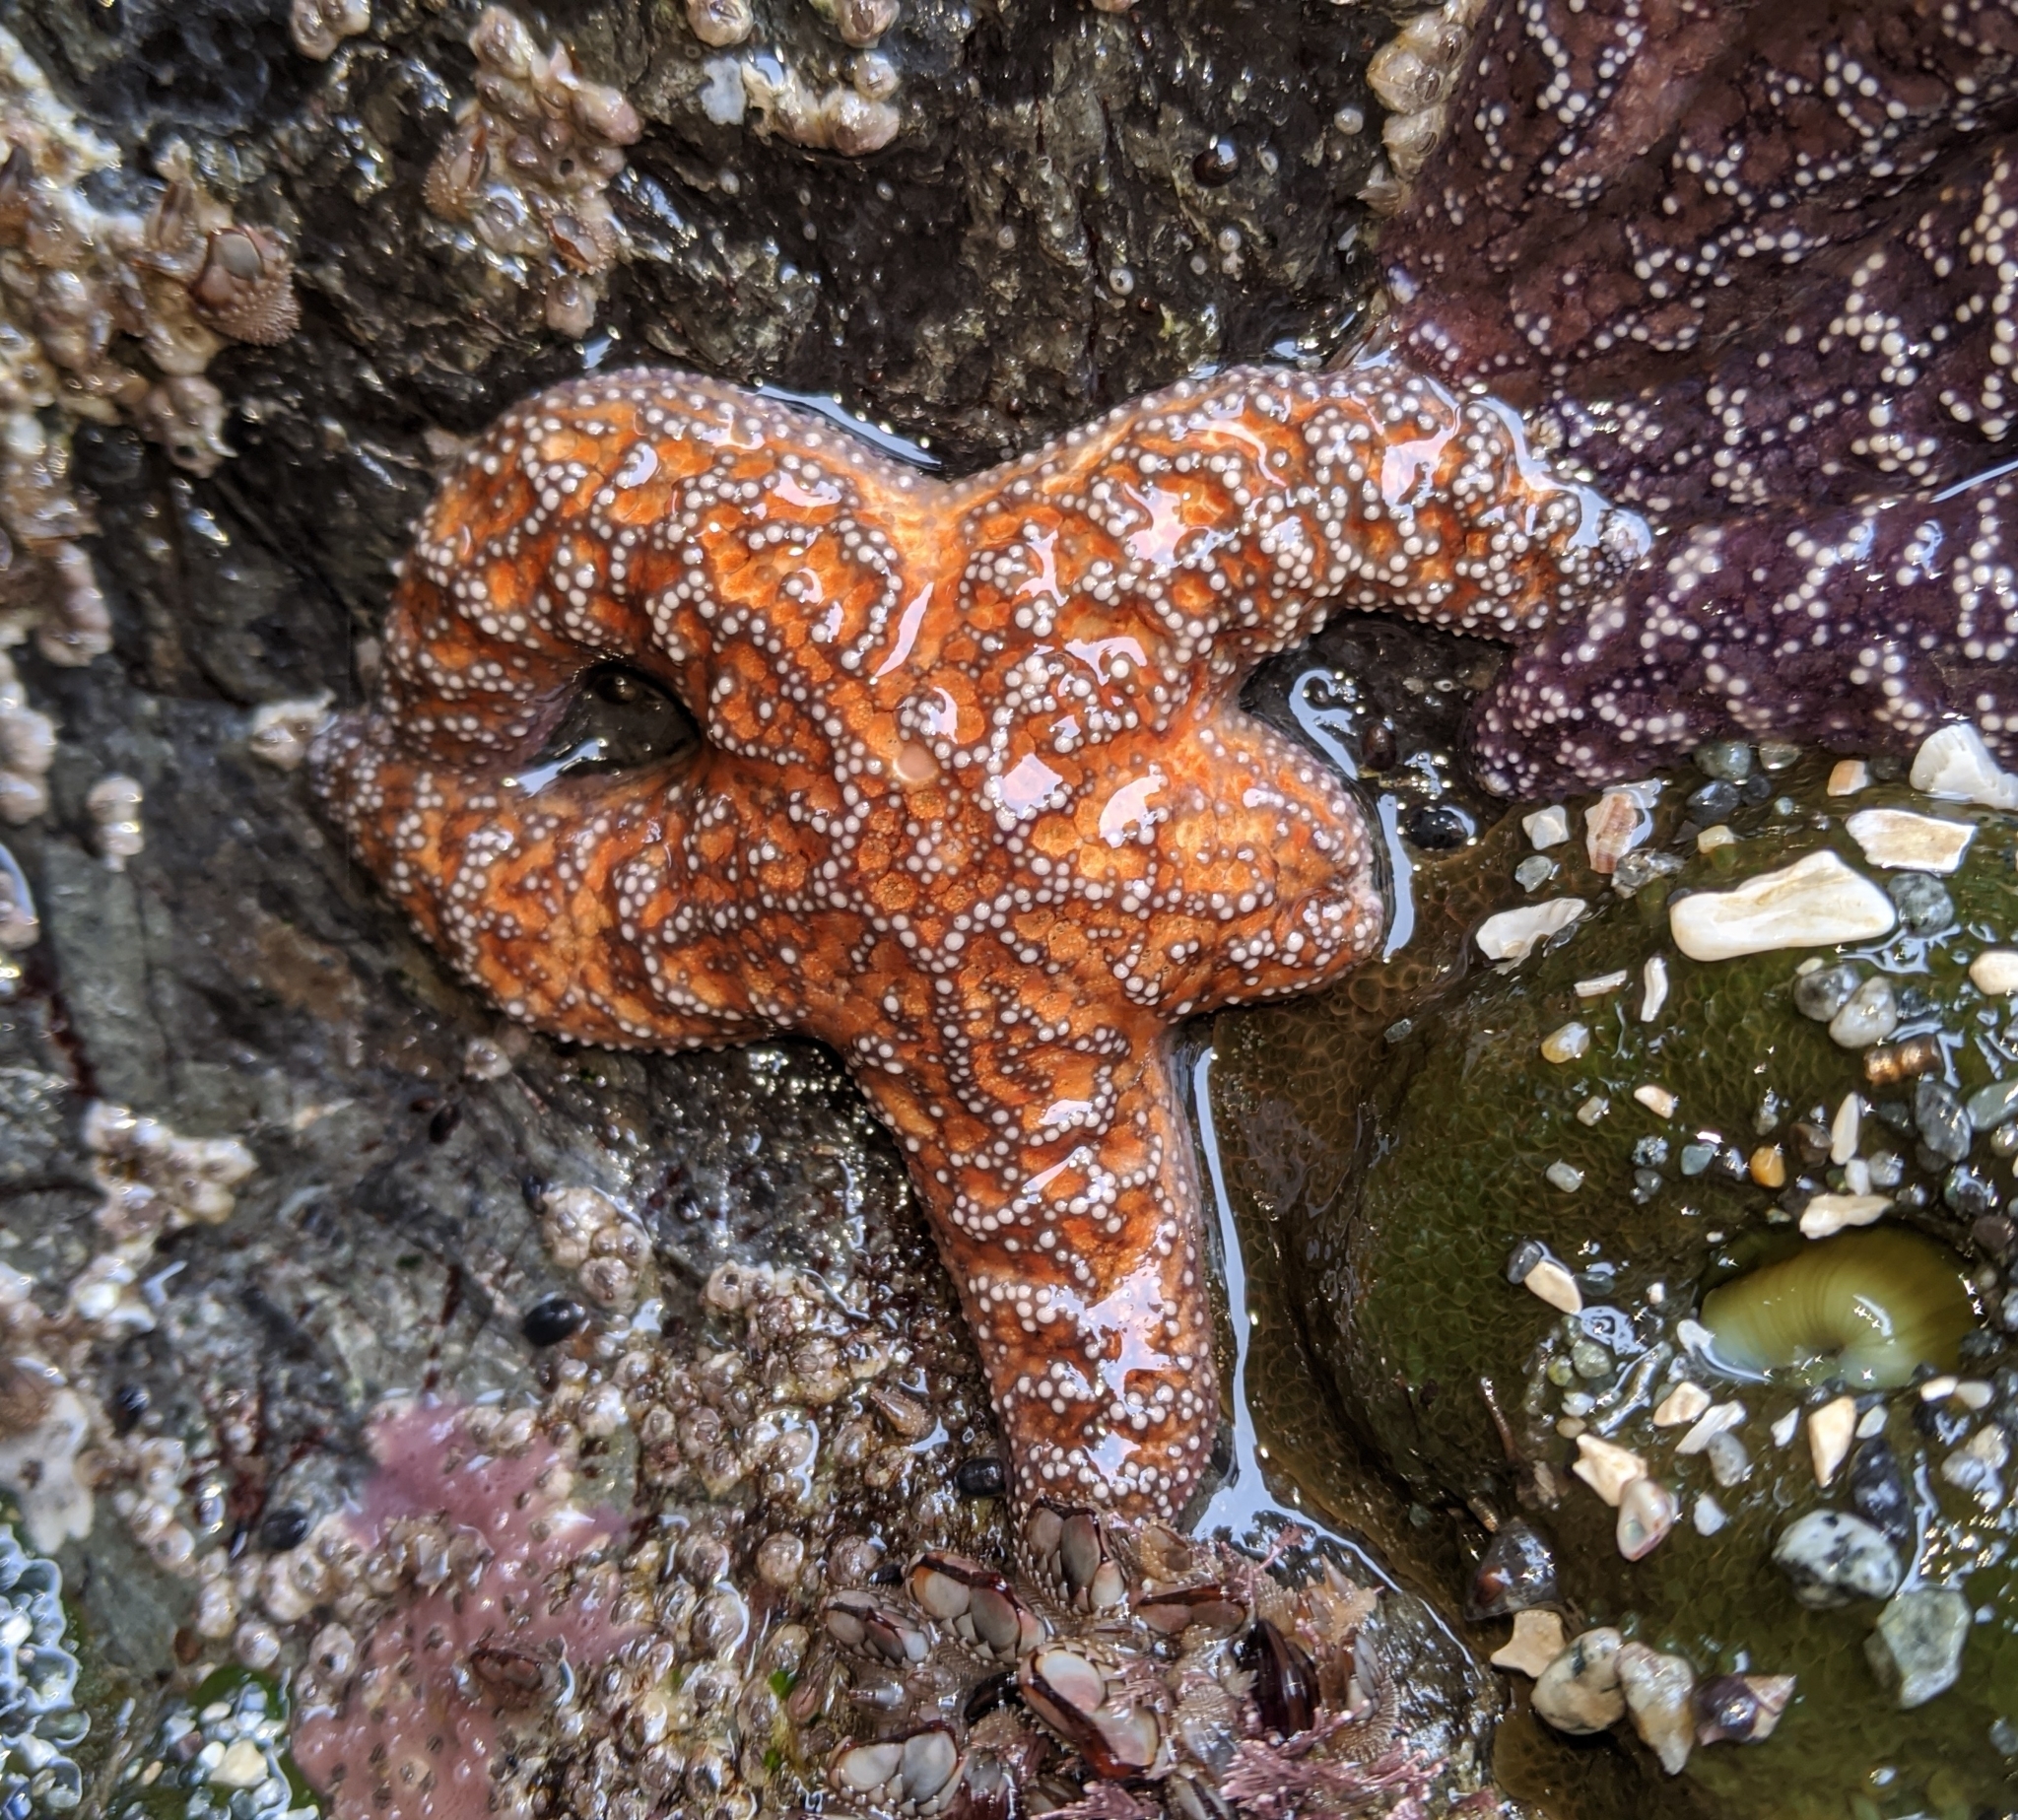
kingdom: Animalia
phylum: Echinodermata
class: Asteroidea
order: Forcipulatida
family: Asteriidae
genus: Pisaster
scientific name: Pisaster ochraceus
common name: Ochre stars
